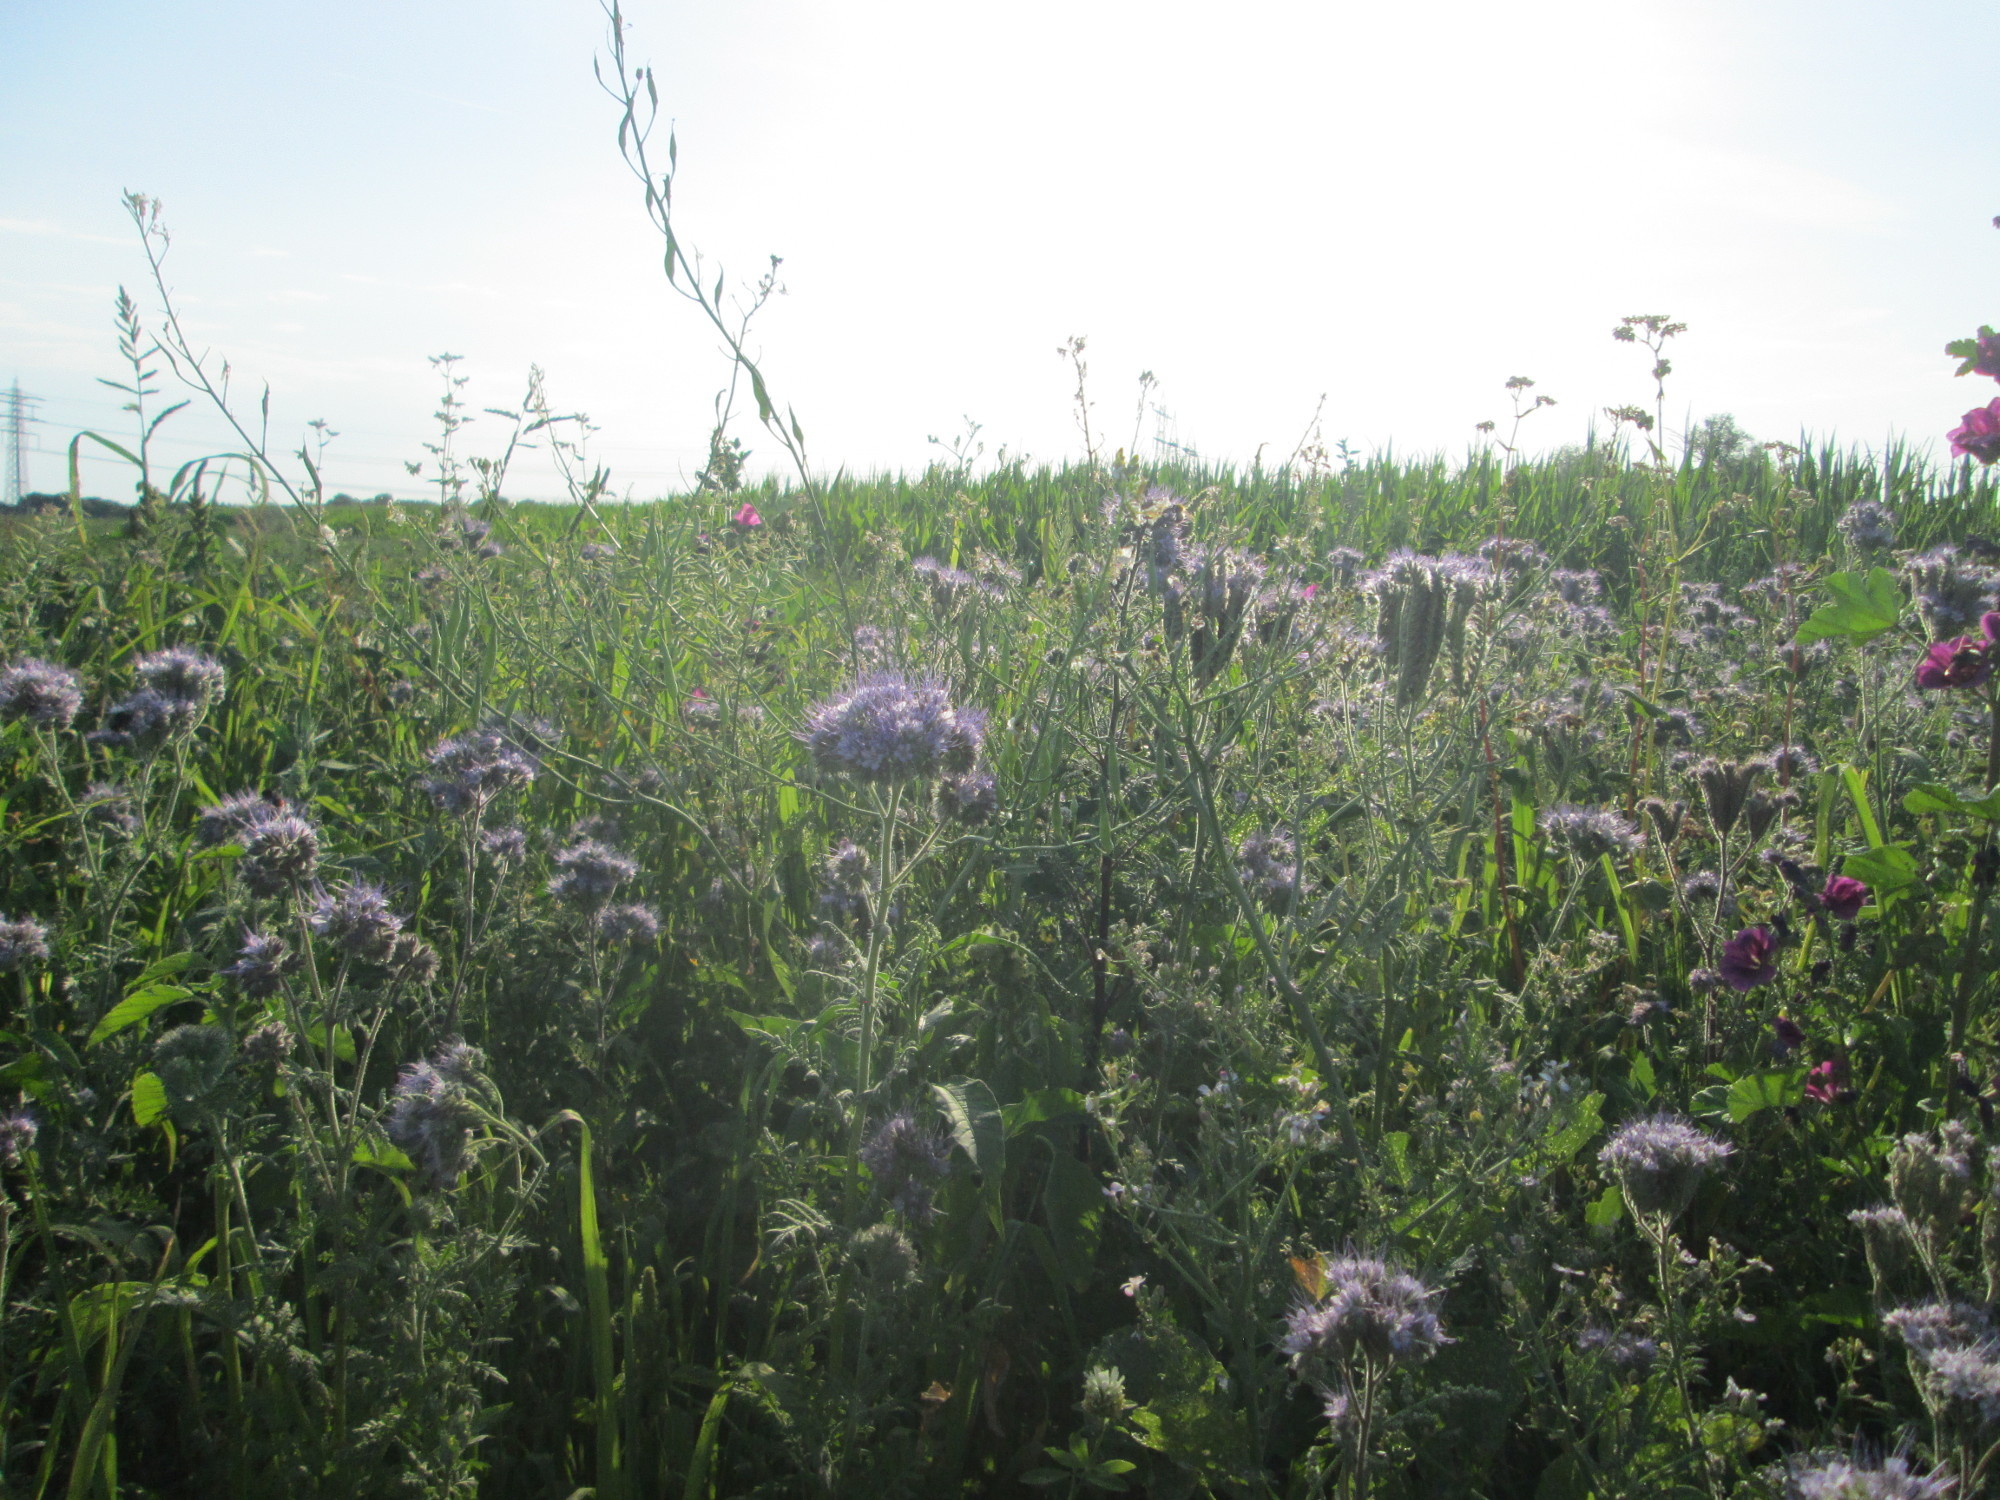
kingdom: Plantae
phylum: Tracheophyta
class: Magnoliopsida
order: Boraginales
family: Hydrophyllaceae
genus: Phacelia
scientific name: Phacelia tanacetifolia
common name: Phacelia
